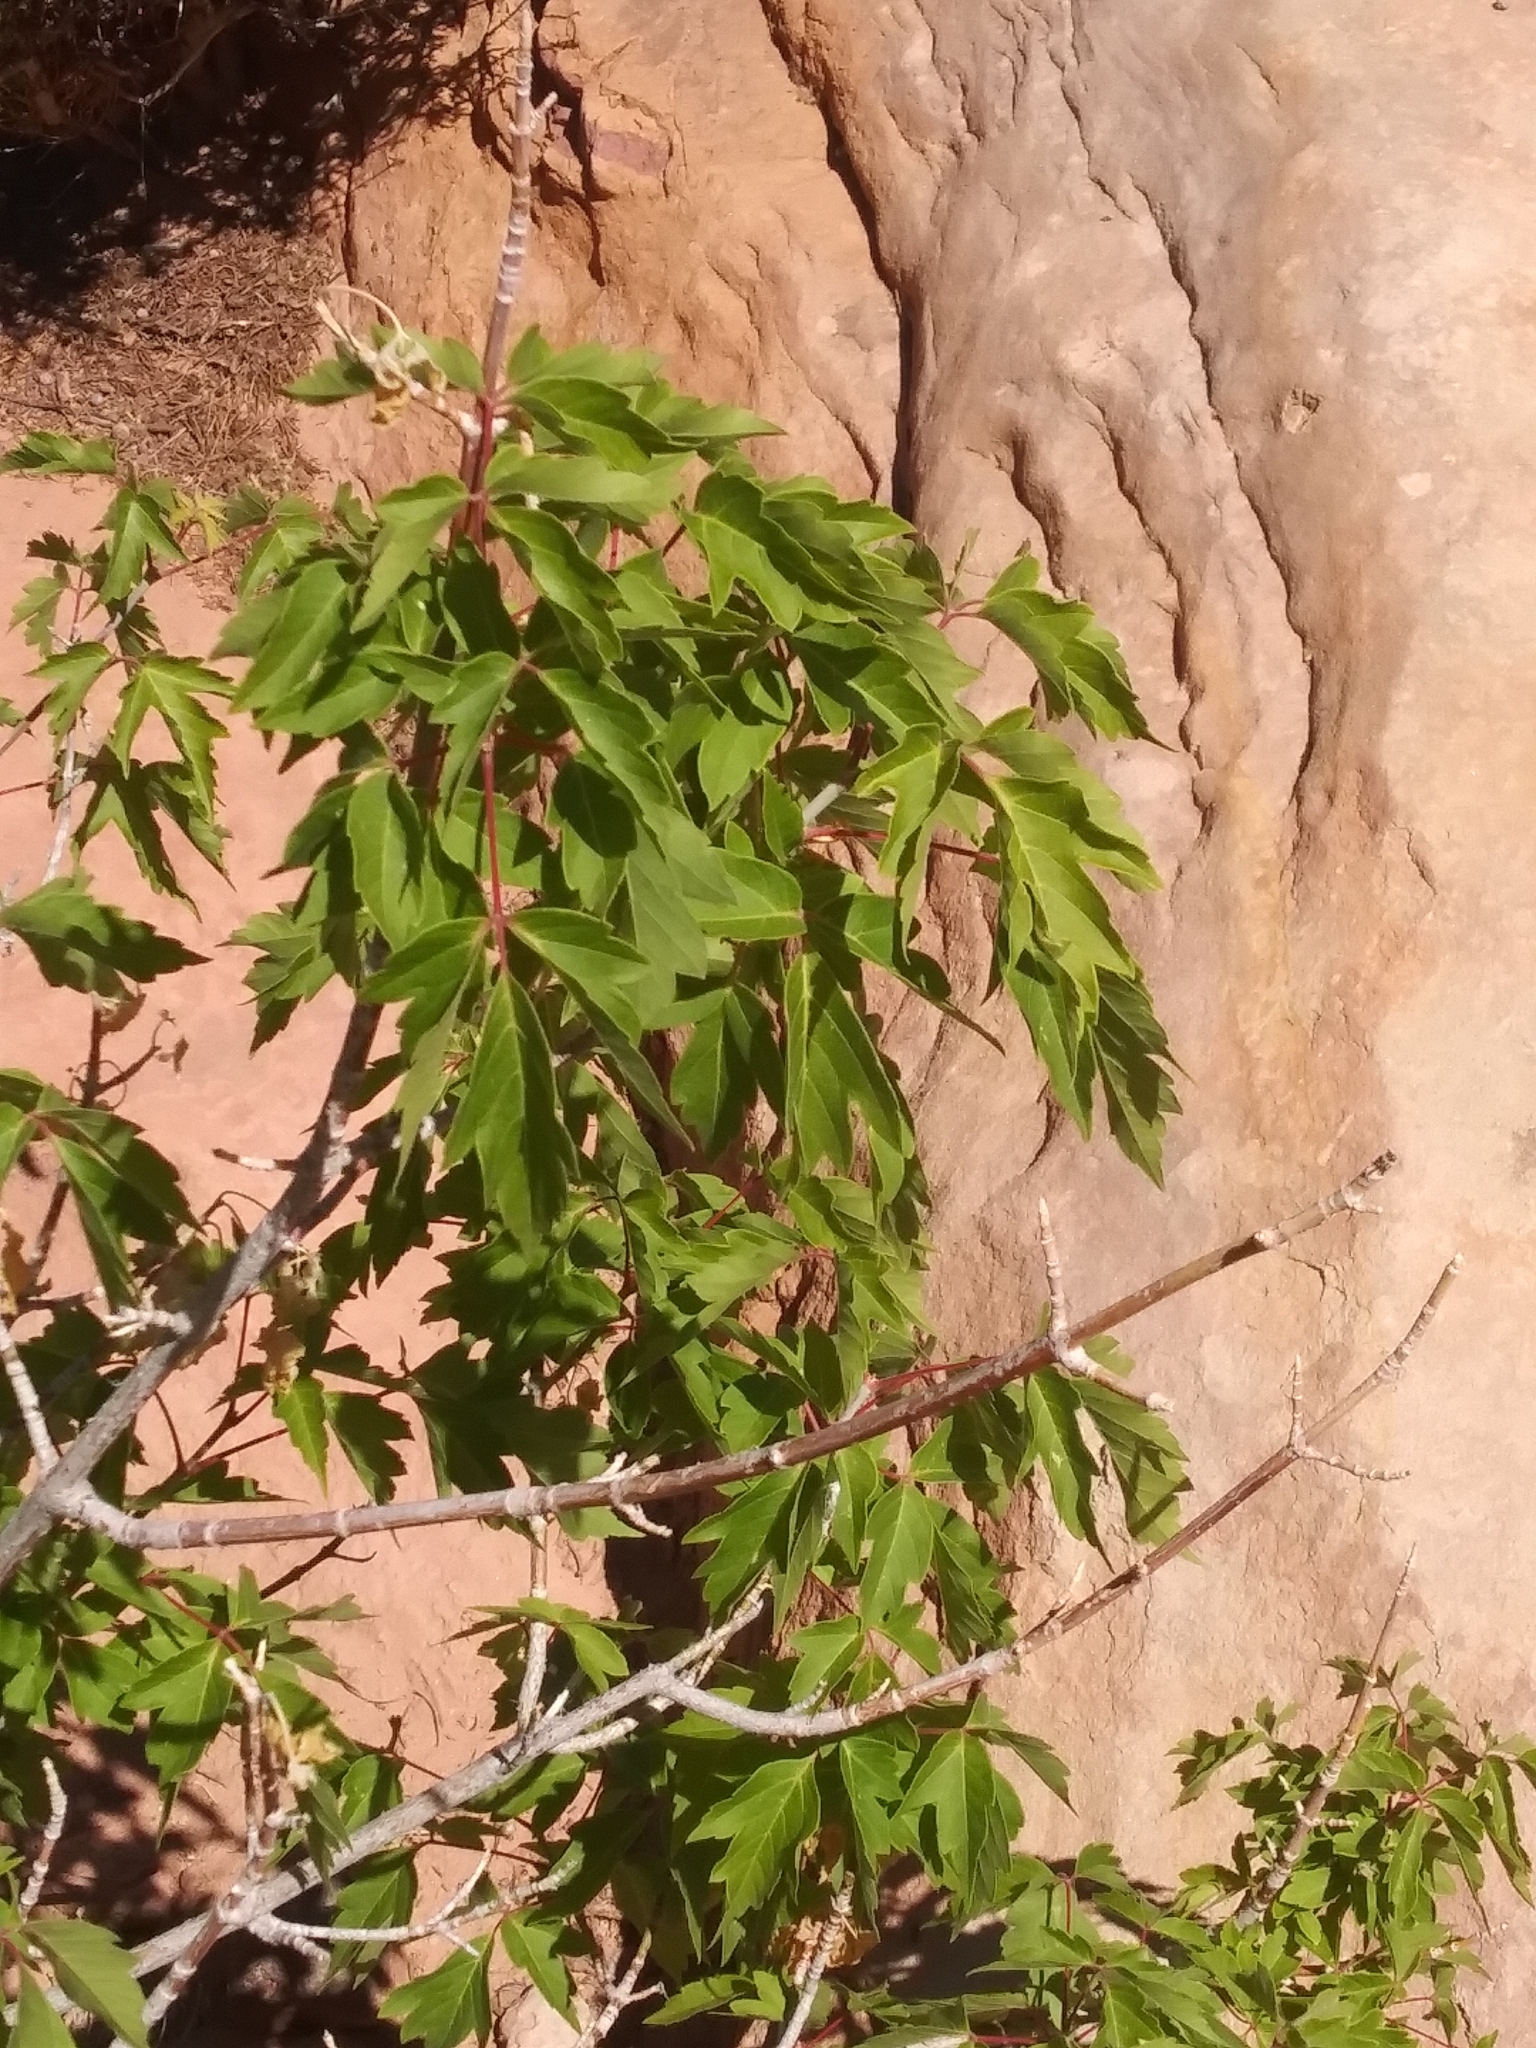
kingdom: Plantae
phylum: Tracheophyta
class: Magnoliopsida
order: Sapindales
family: Sapindaceae
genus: Acer
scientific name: Acer negundo
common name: Ashleaf maple
